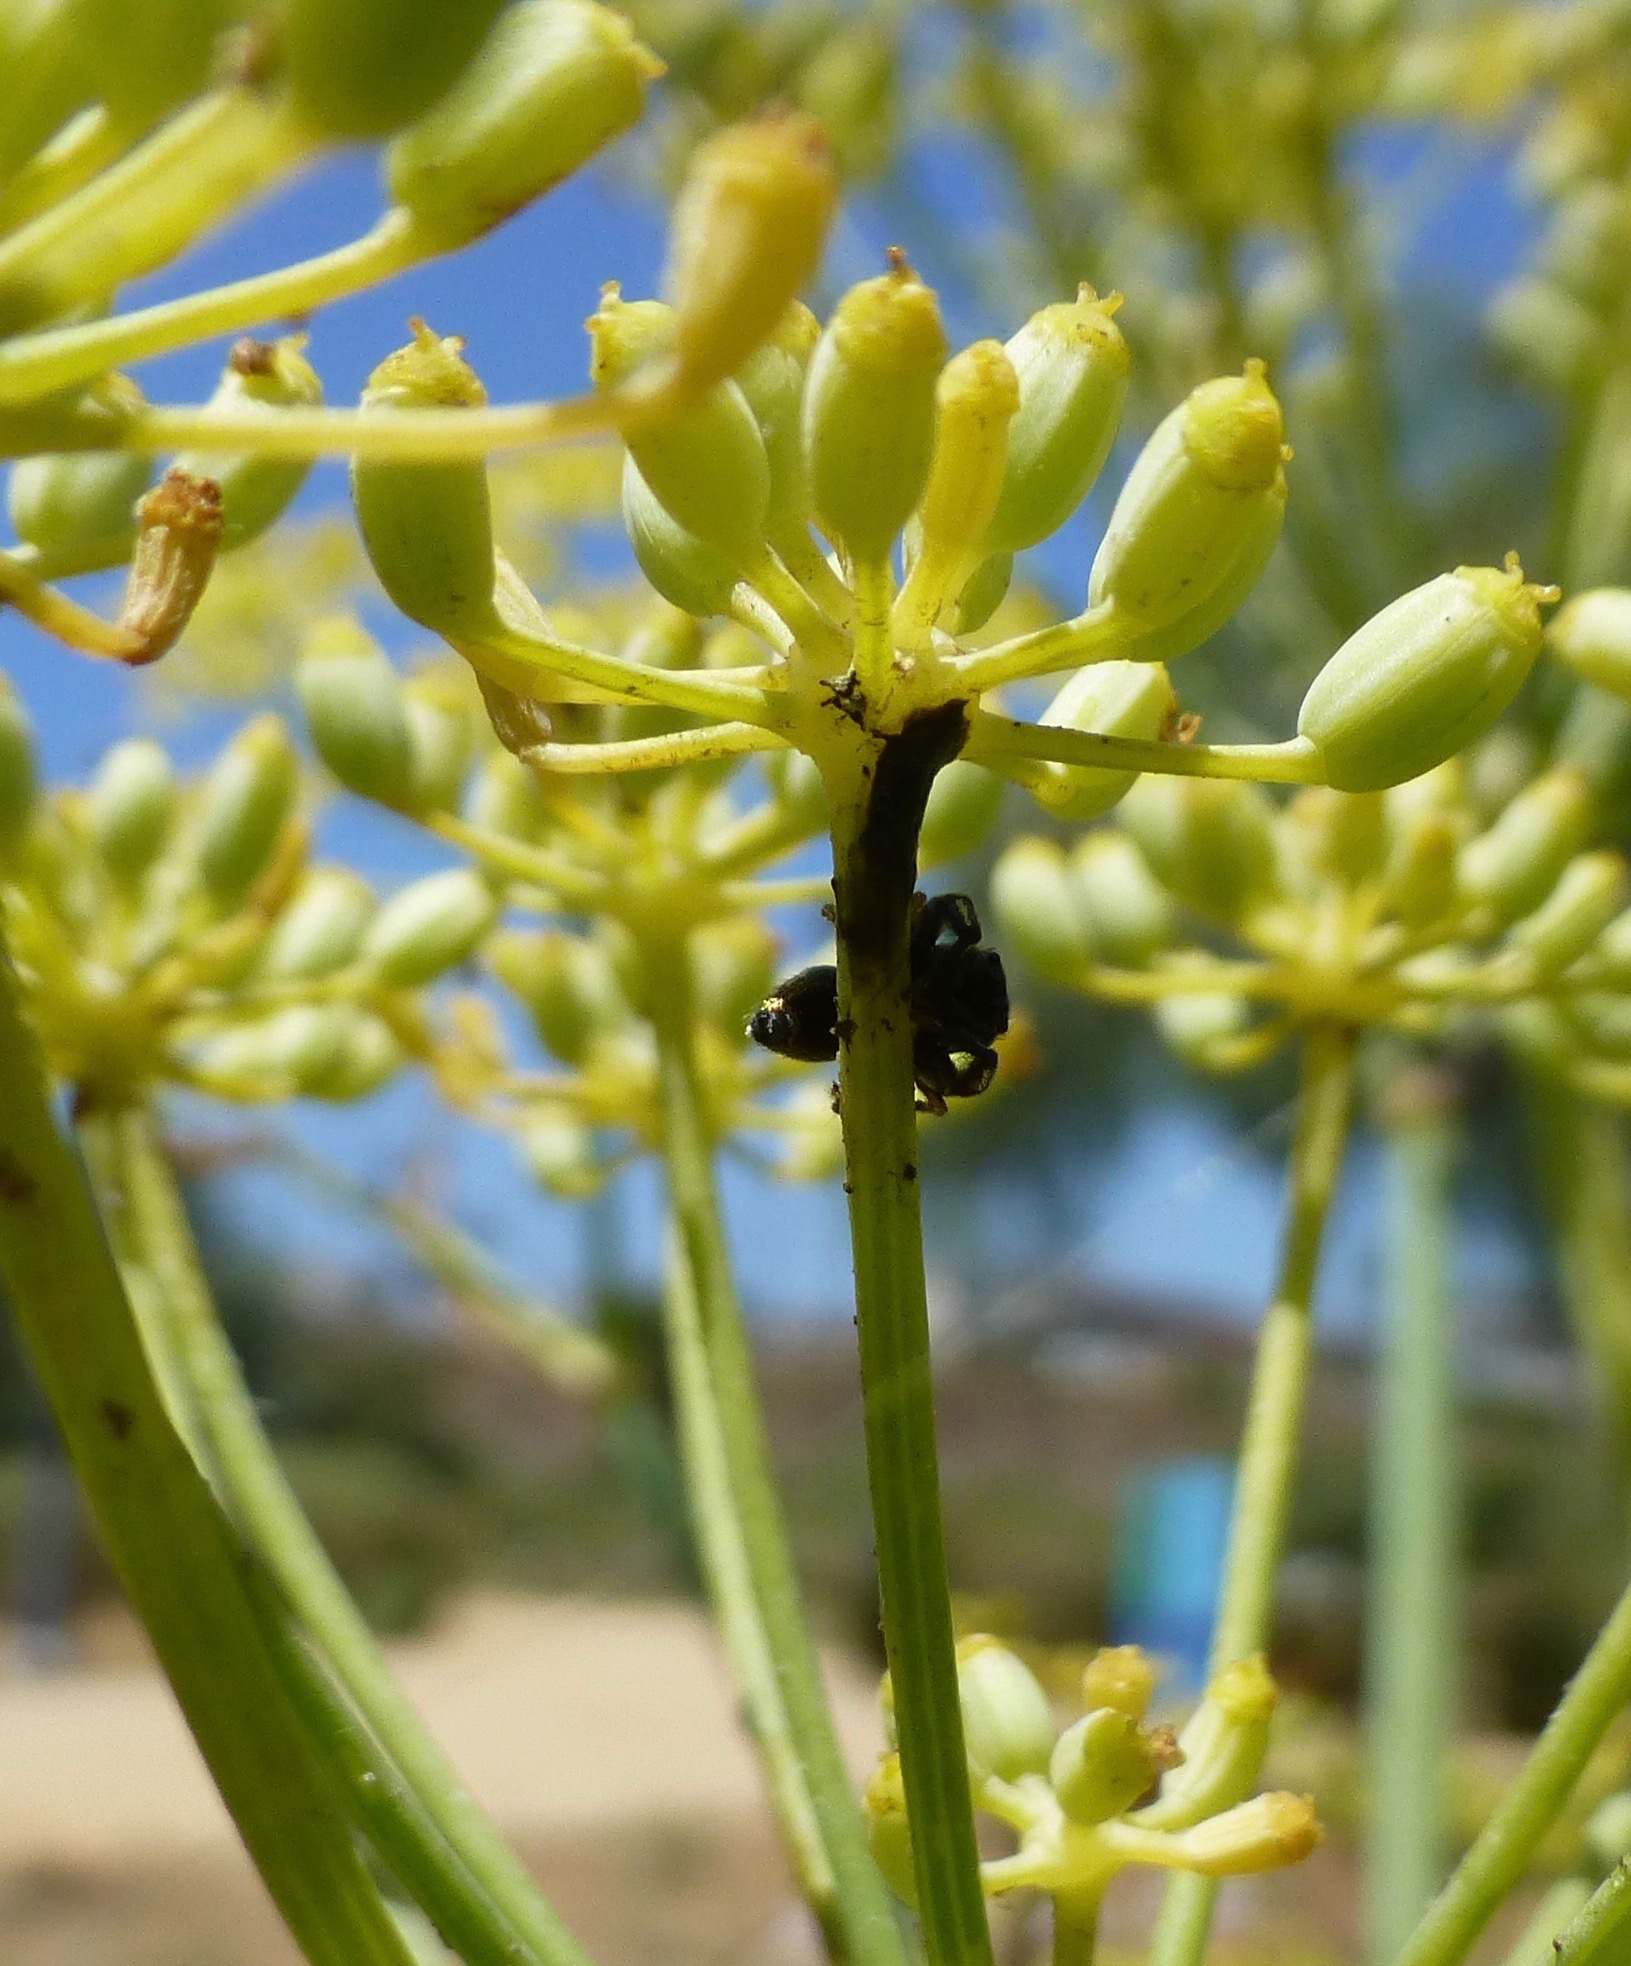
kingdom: Animalia
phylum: Arthropoda
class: Arachnida
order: Araneae
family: Salticidae
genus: Sassacus
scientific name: Sassacus vitis
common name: Jumping spiders
